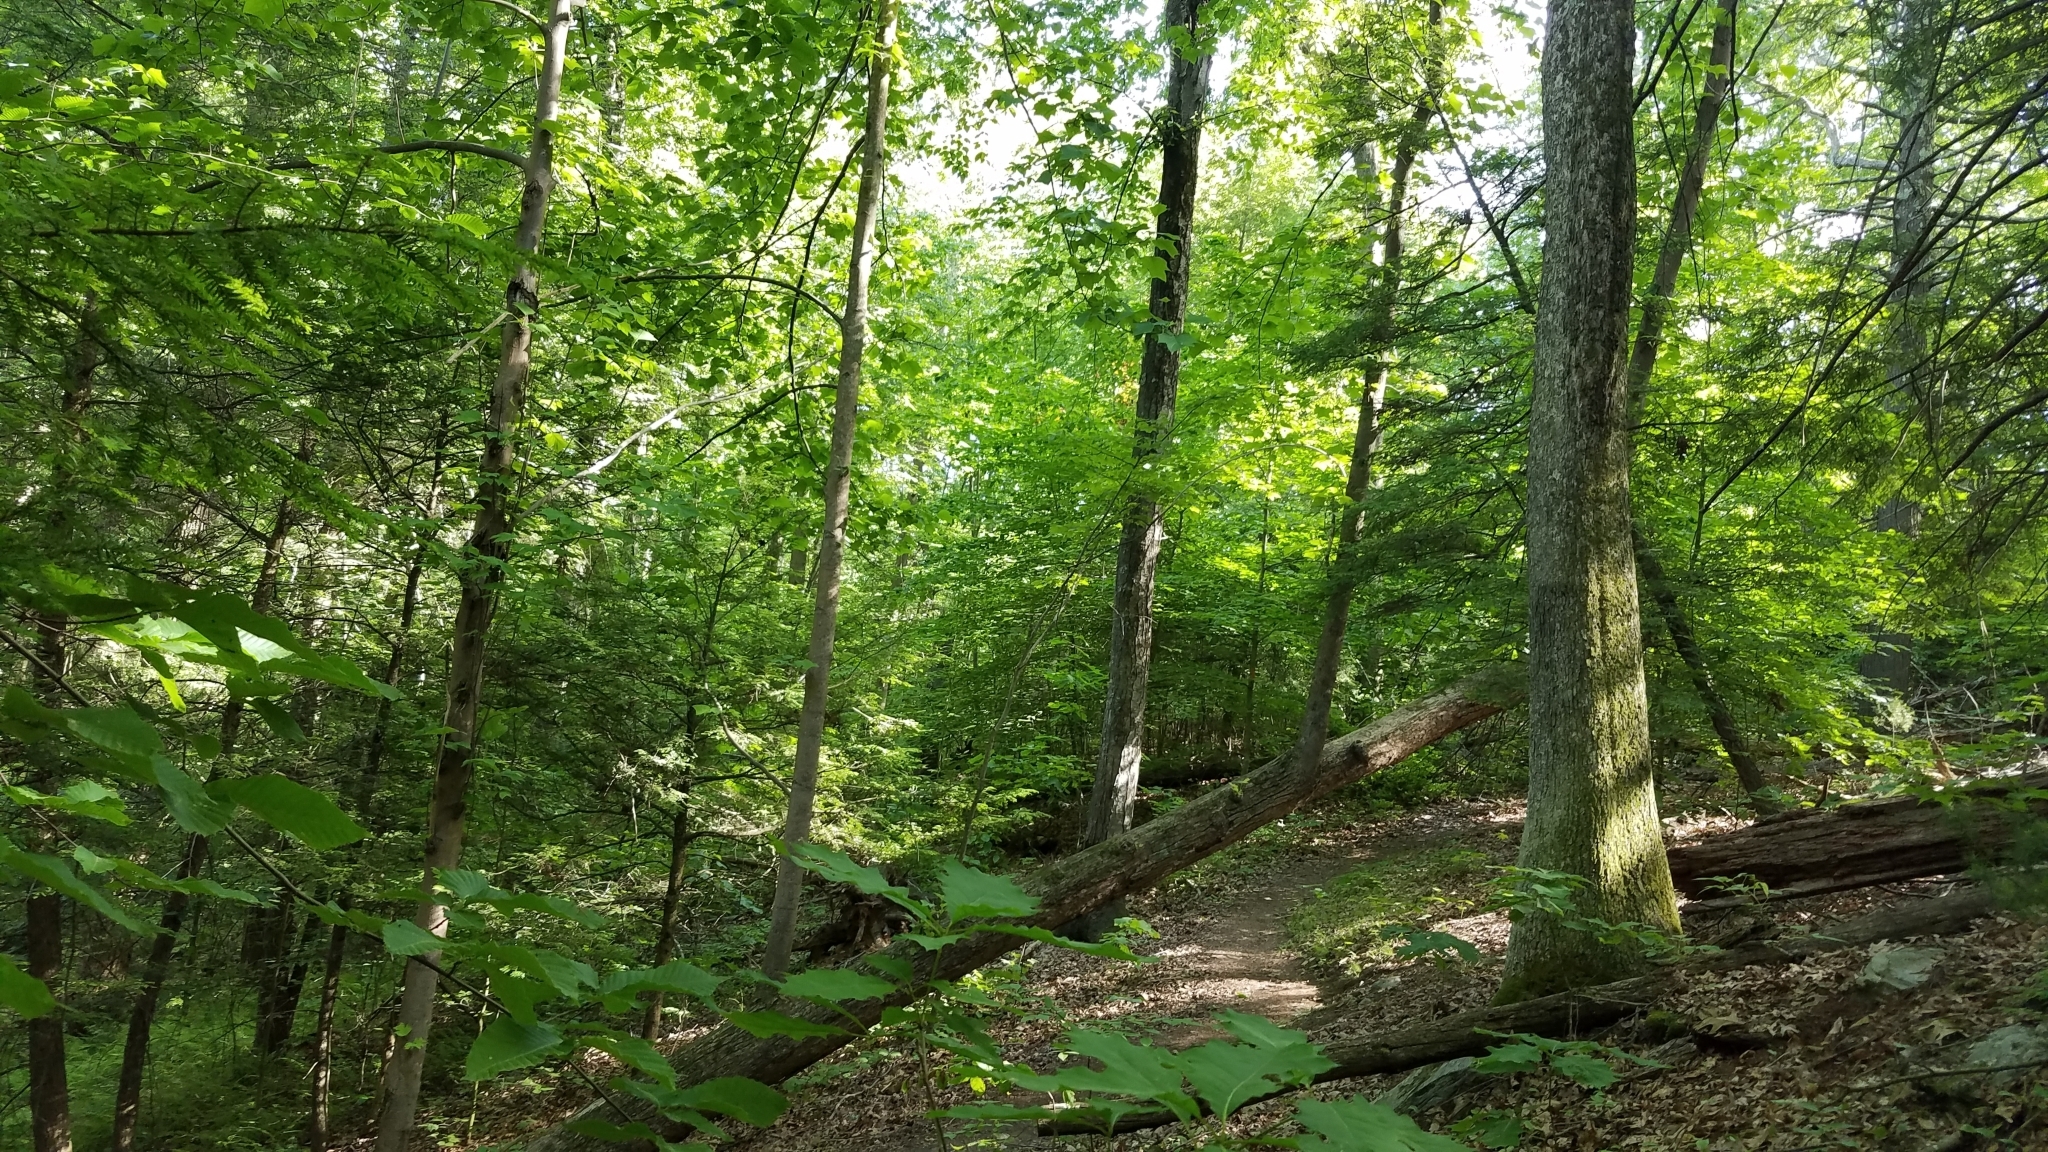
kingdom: Plantae
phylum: Tracheophyta
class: Magnoliopsida
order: Magnoliales
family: Magnoliaceae
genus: Liriodendron
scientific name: Liriodendron tulipifera
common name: Tulip tree
